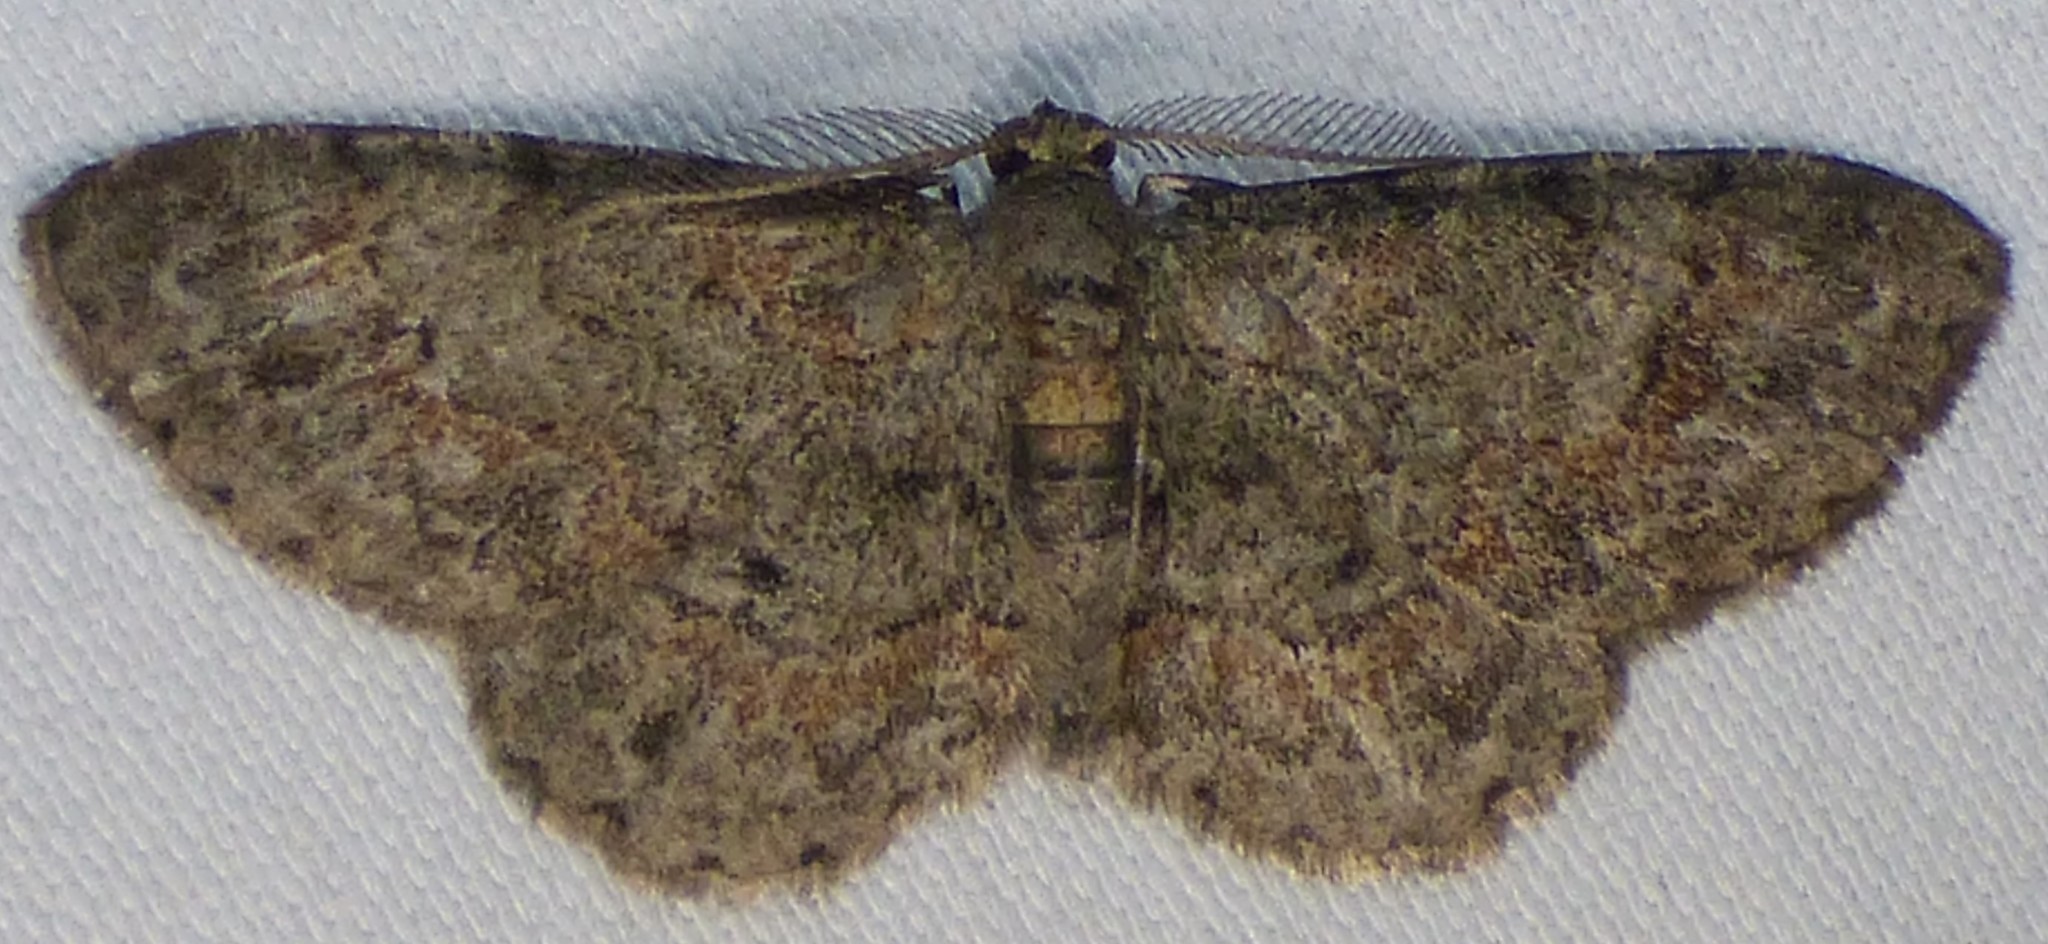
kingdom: Animalia
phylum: Arthropoda
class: Insecta
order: Lepidoptera
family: Geometridae
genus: Glenoides
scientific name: Glenoides texanaria
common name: Texas gray
